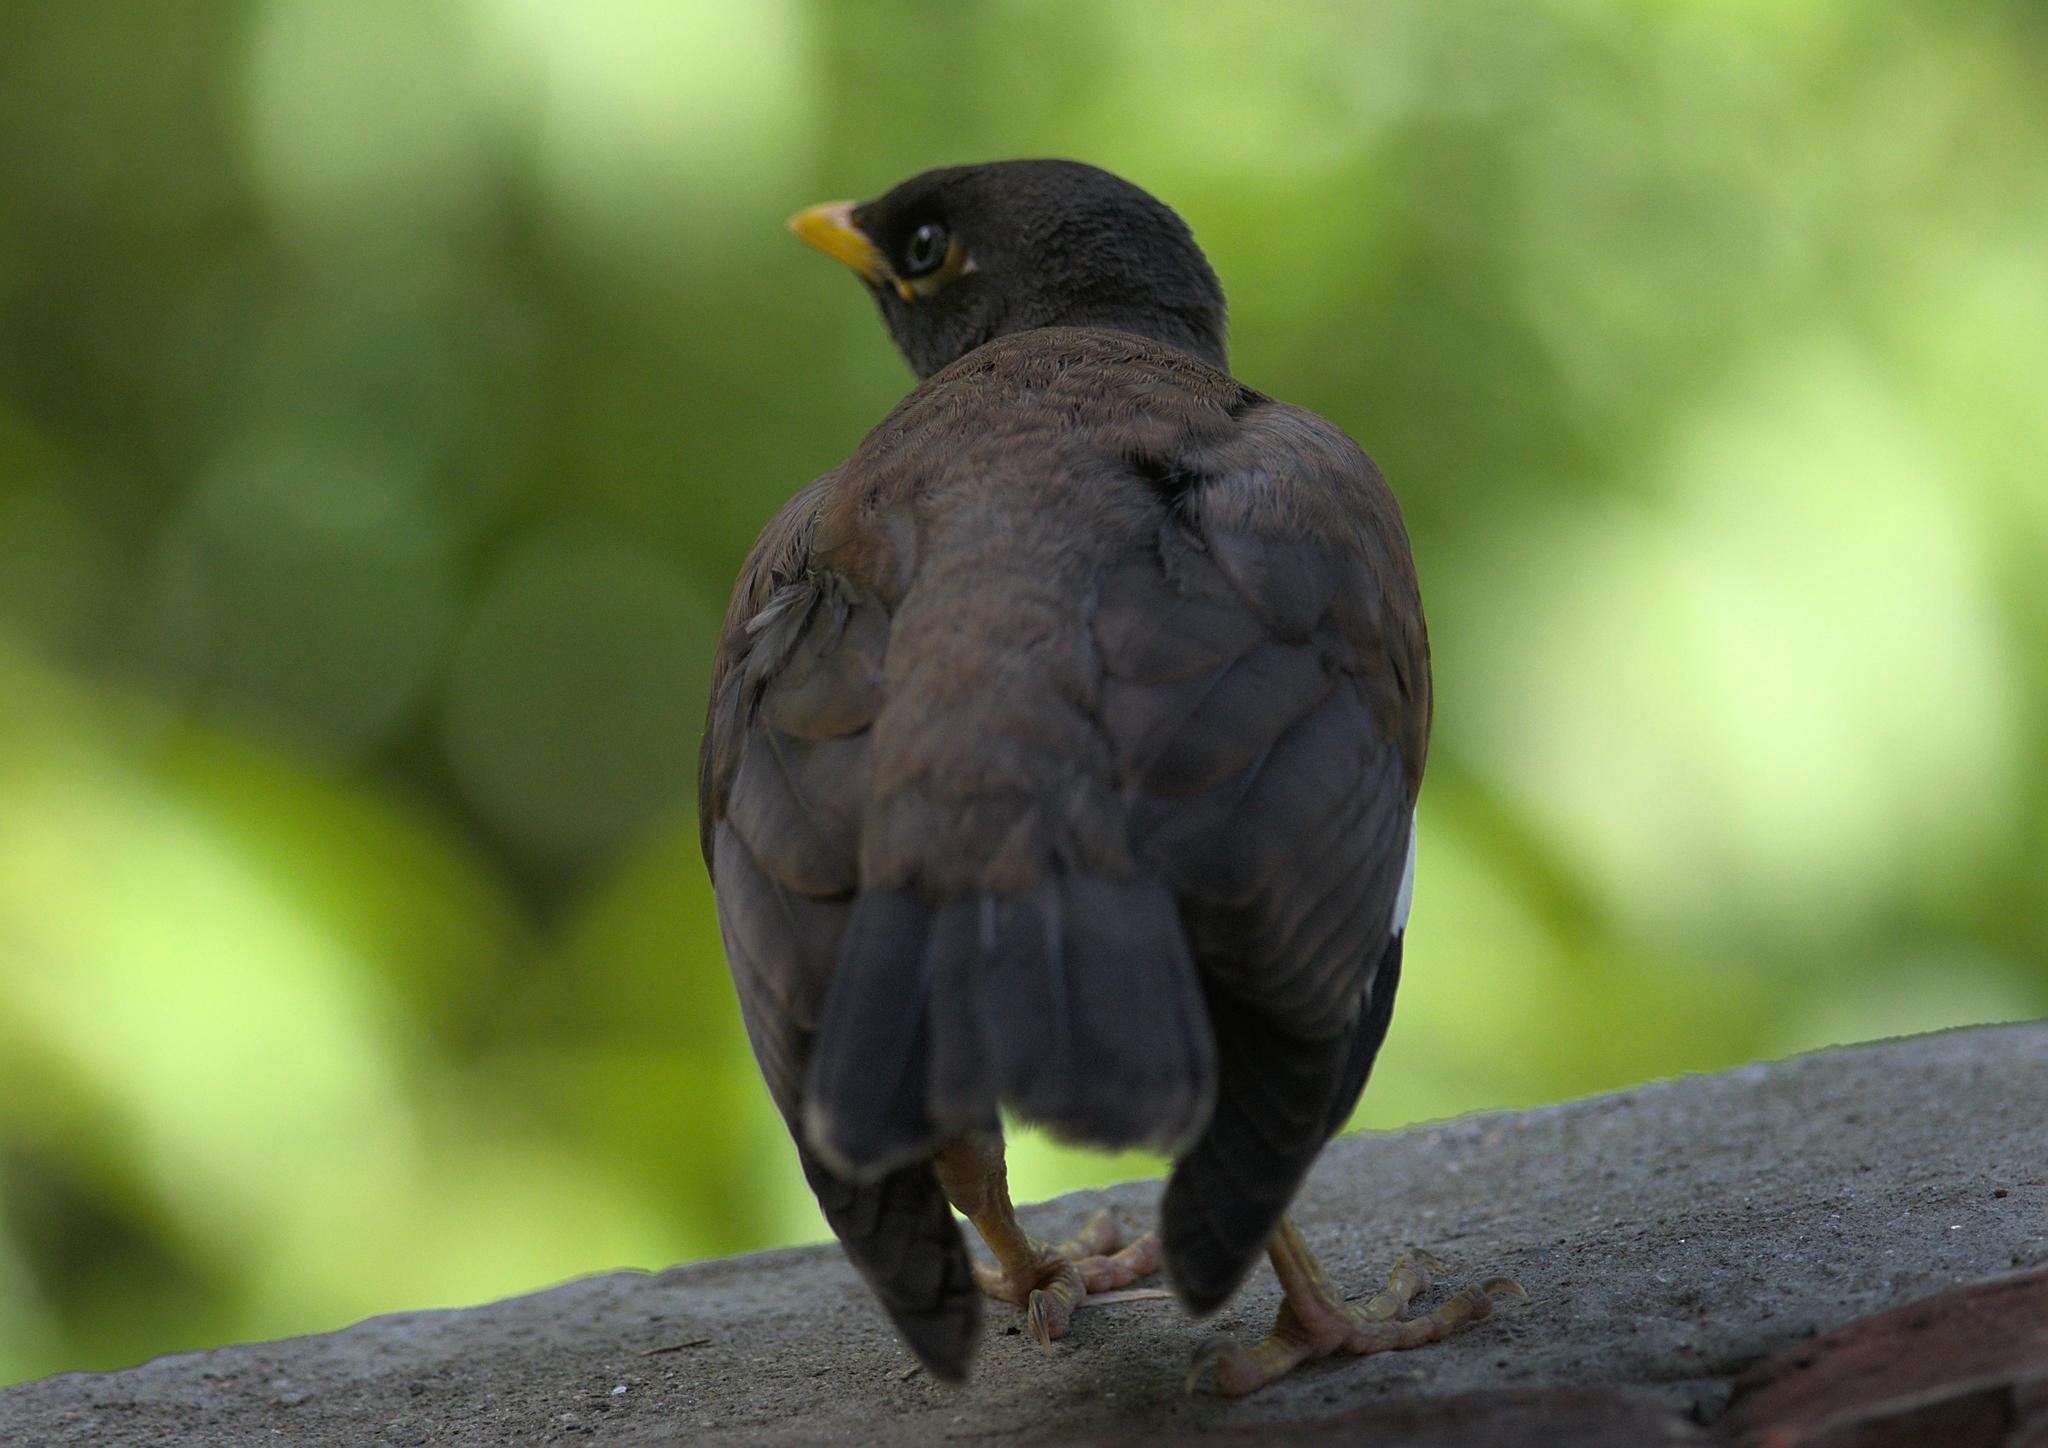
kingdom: Animalia
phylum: Chordata
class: Aves
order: Passeriformes
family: Sturnidae
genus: Acridotheres
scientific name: Acridotheres tristis
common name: Common myna
